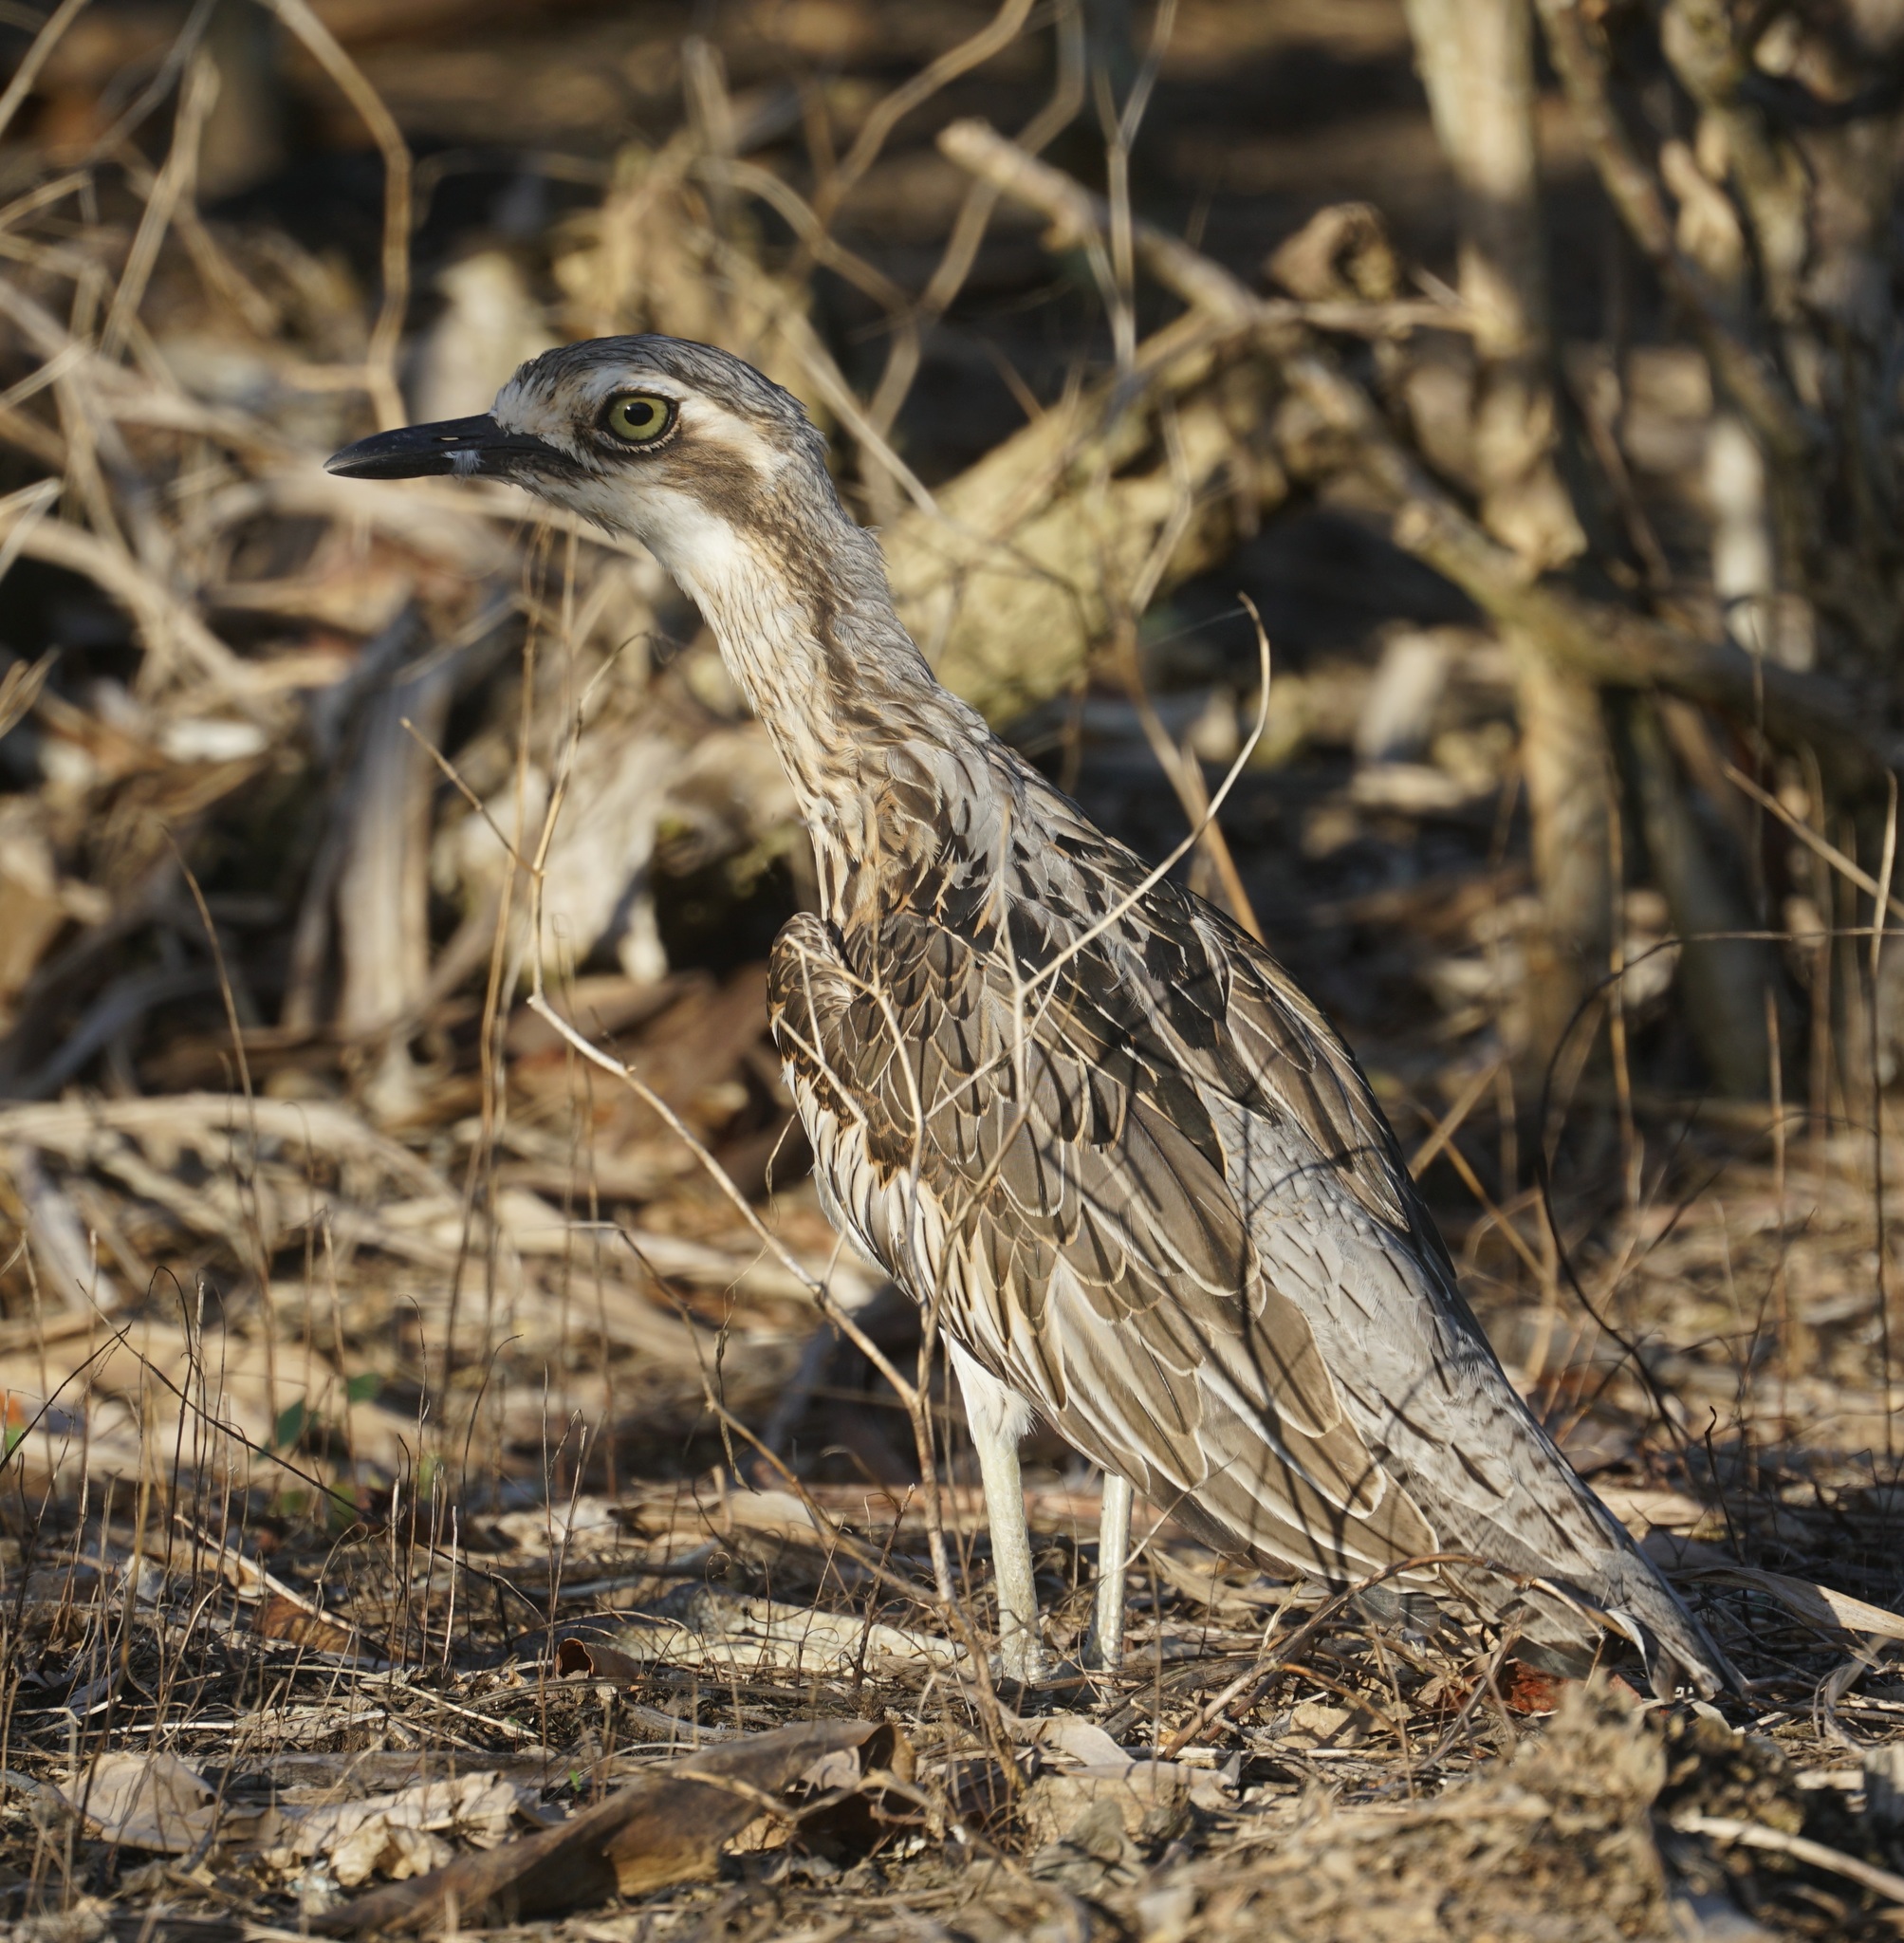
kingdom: Animalia
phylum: Chordata
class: Aves
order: Charadriiformes
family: Burhinidae
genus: Burhinus
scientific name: Burhinus grallarius
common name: Bush stone-curlew
